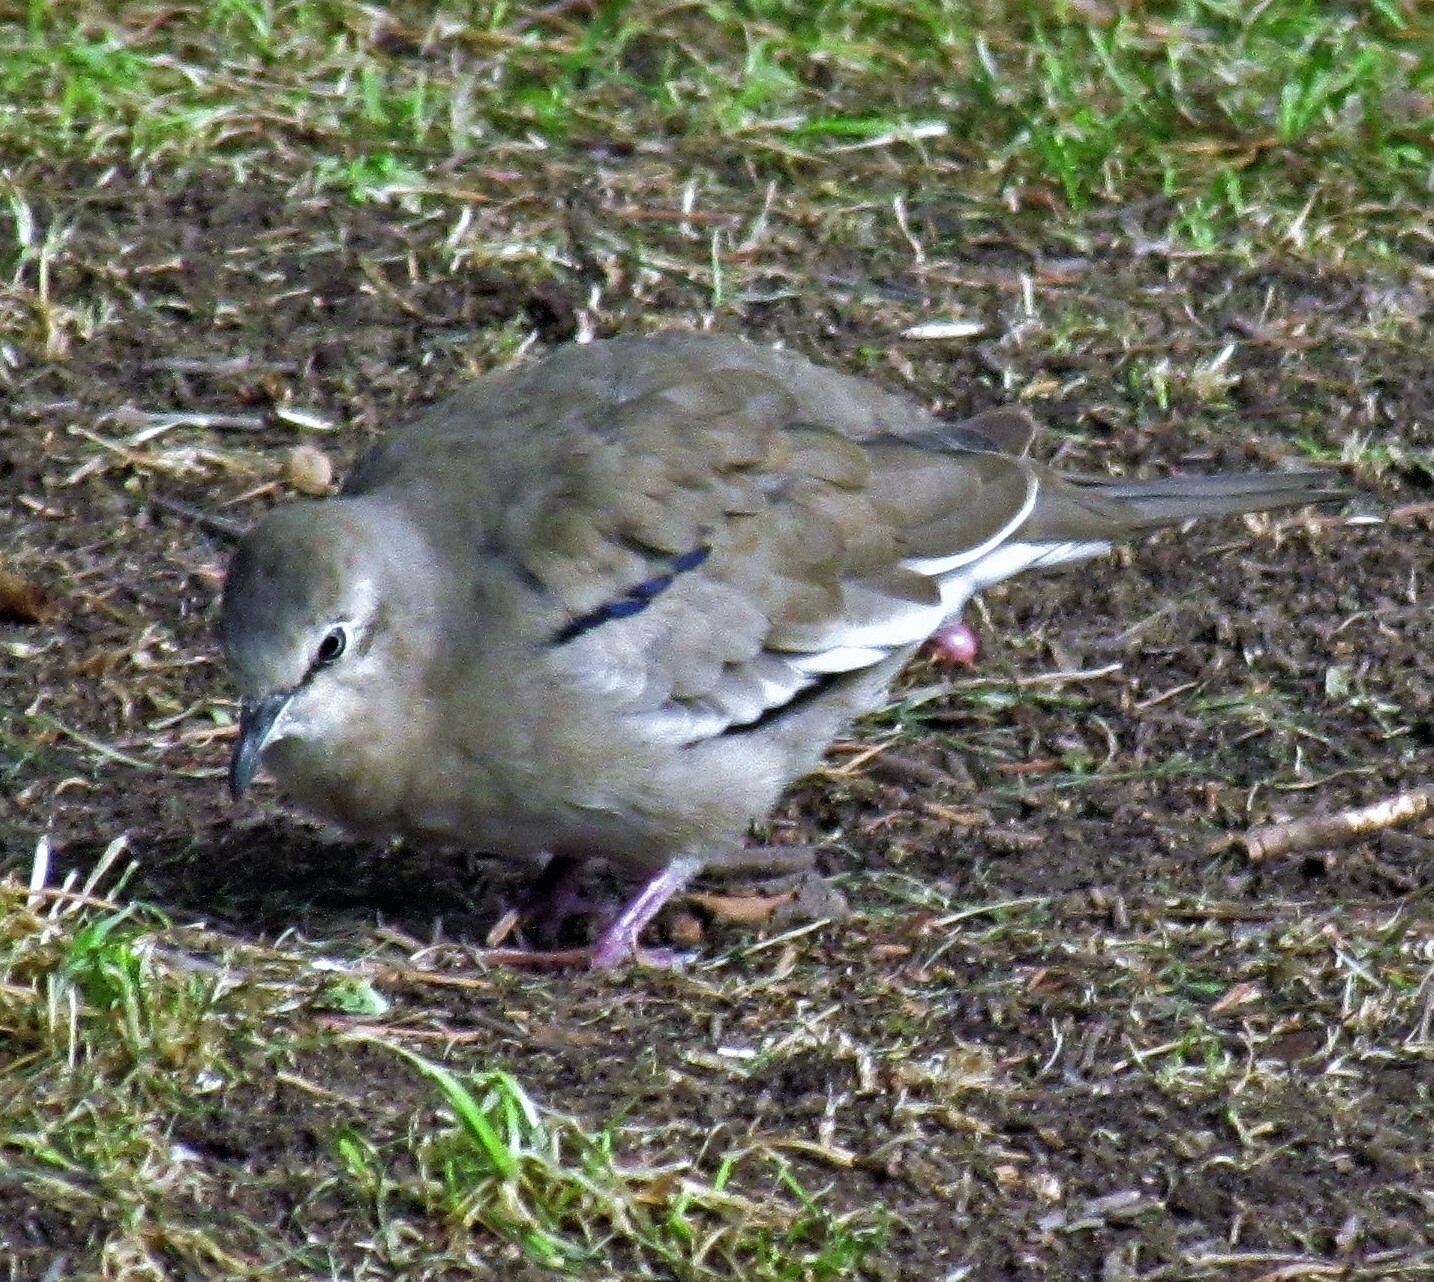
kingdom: Animalia
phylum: Chordata
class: Aves
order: Columbiformes
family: Columbidae
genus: Columbina
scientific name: Columbina picui
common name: Picui ground dove
